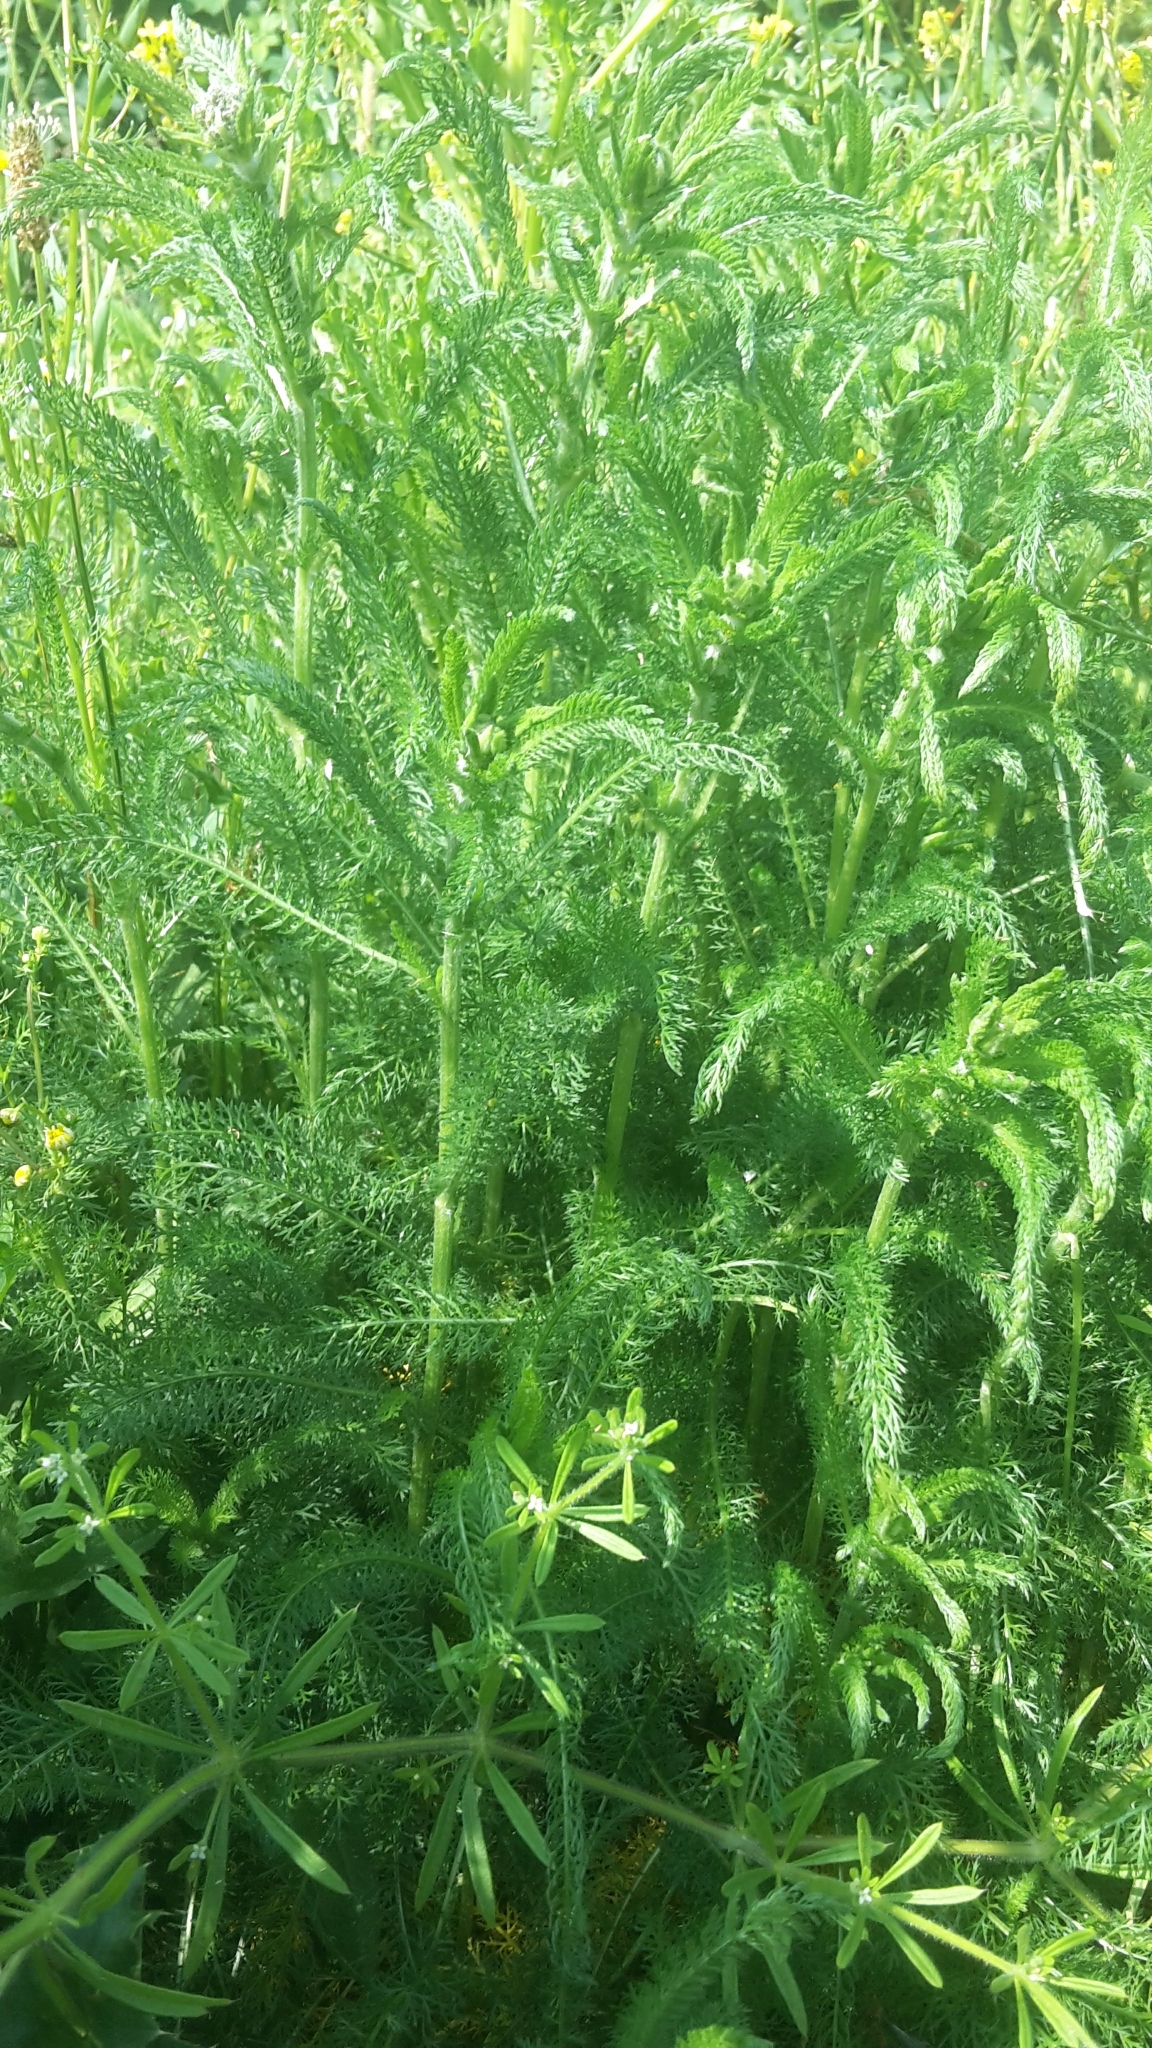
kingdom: Plantae
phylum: Tracheophyta
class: Magnoliopsida
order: Asterales
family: Asteraceae
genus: Achillea
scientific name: Achillea millefolium
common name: Yarrow
